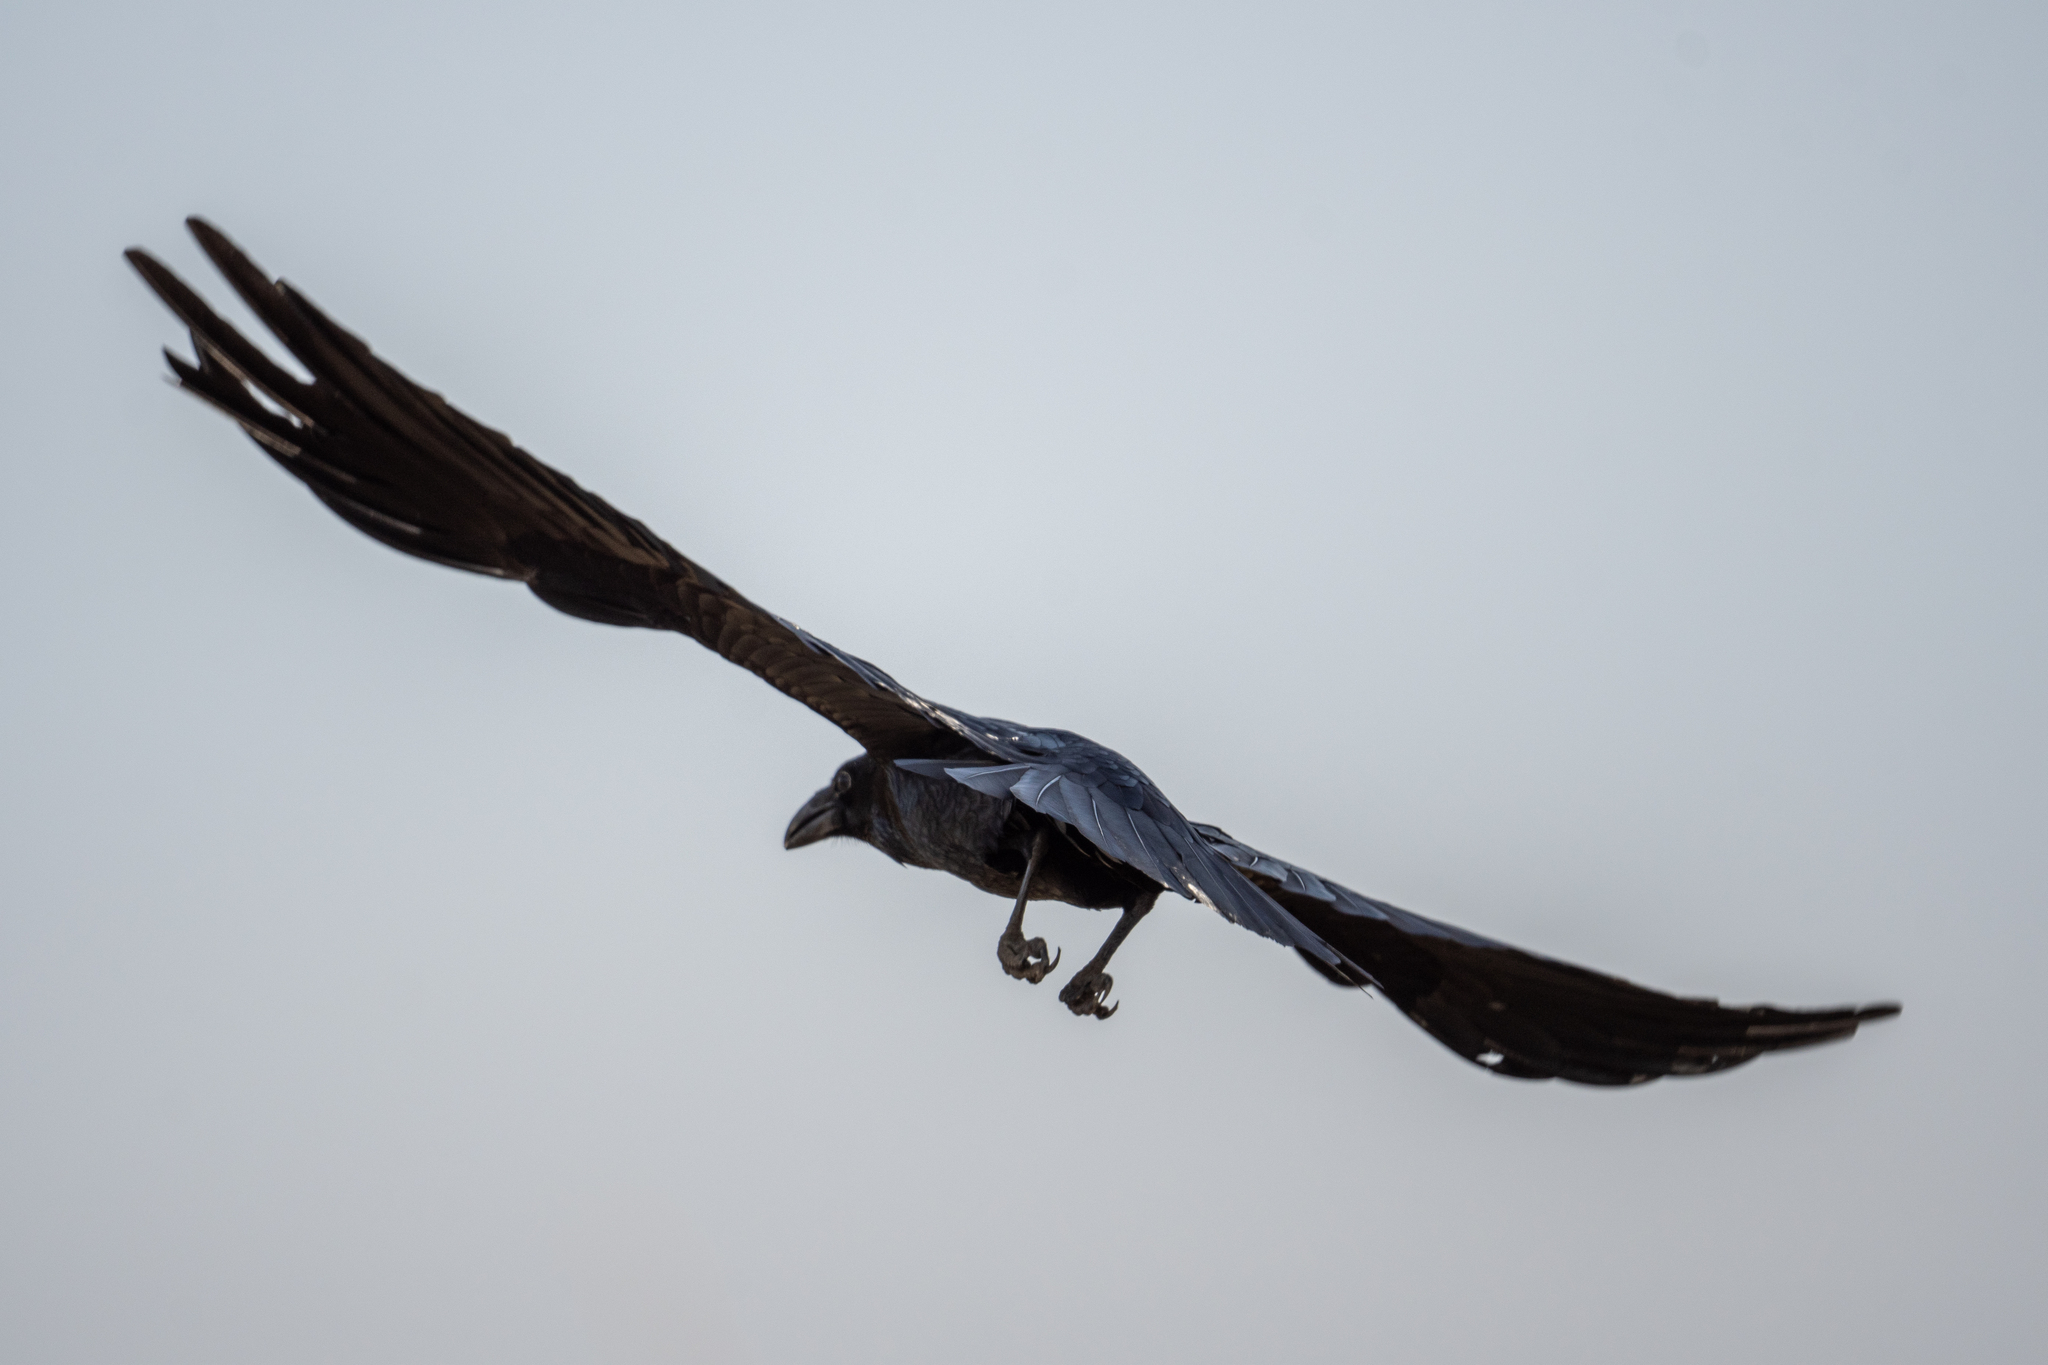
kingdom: Animalia
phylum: Chordata
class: Aves
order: Passeriformes
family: Corvidae
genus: Corvus
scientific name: Corvus corax
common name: Common raven
